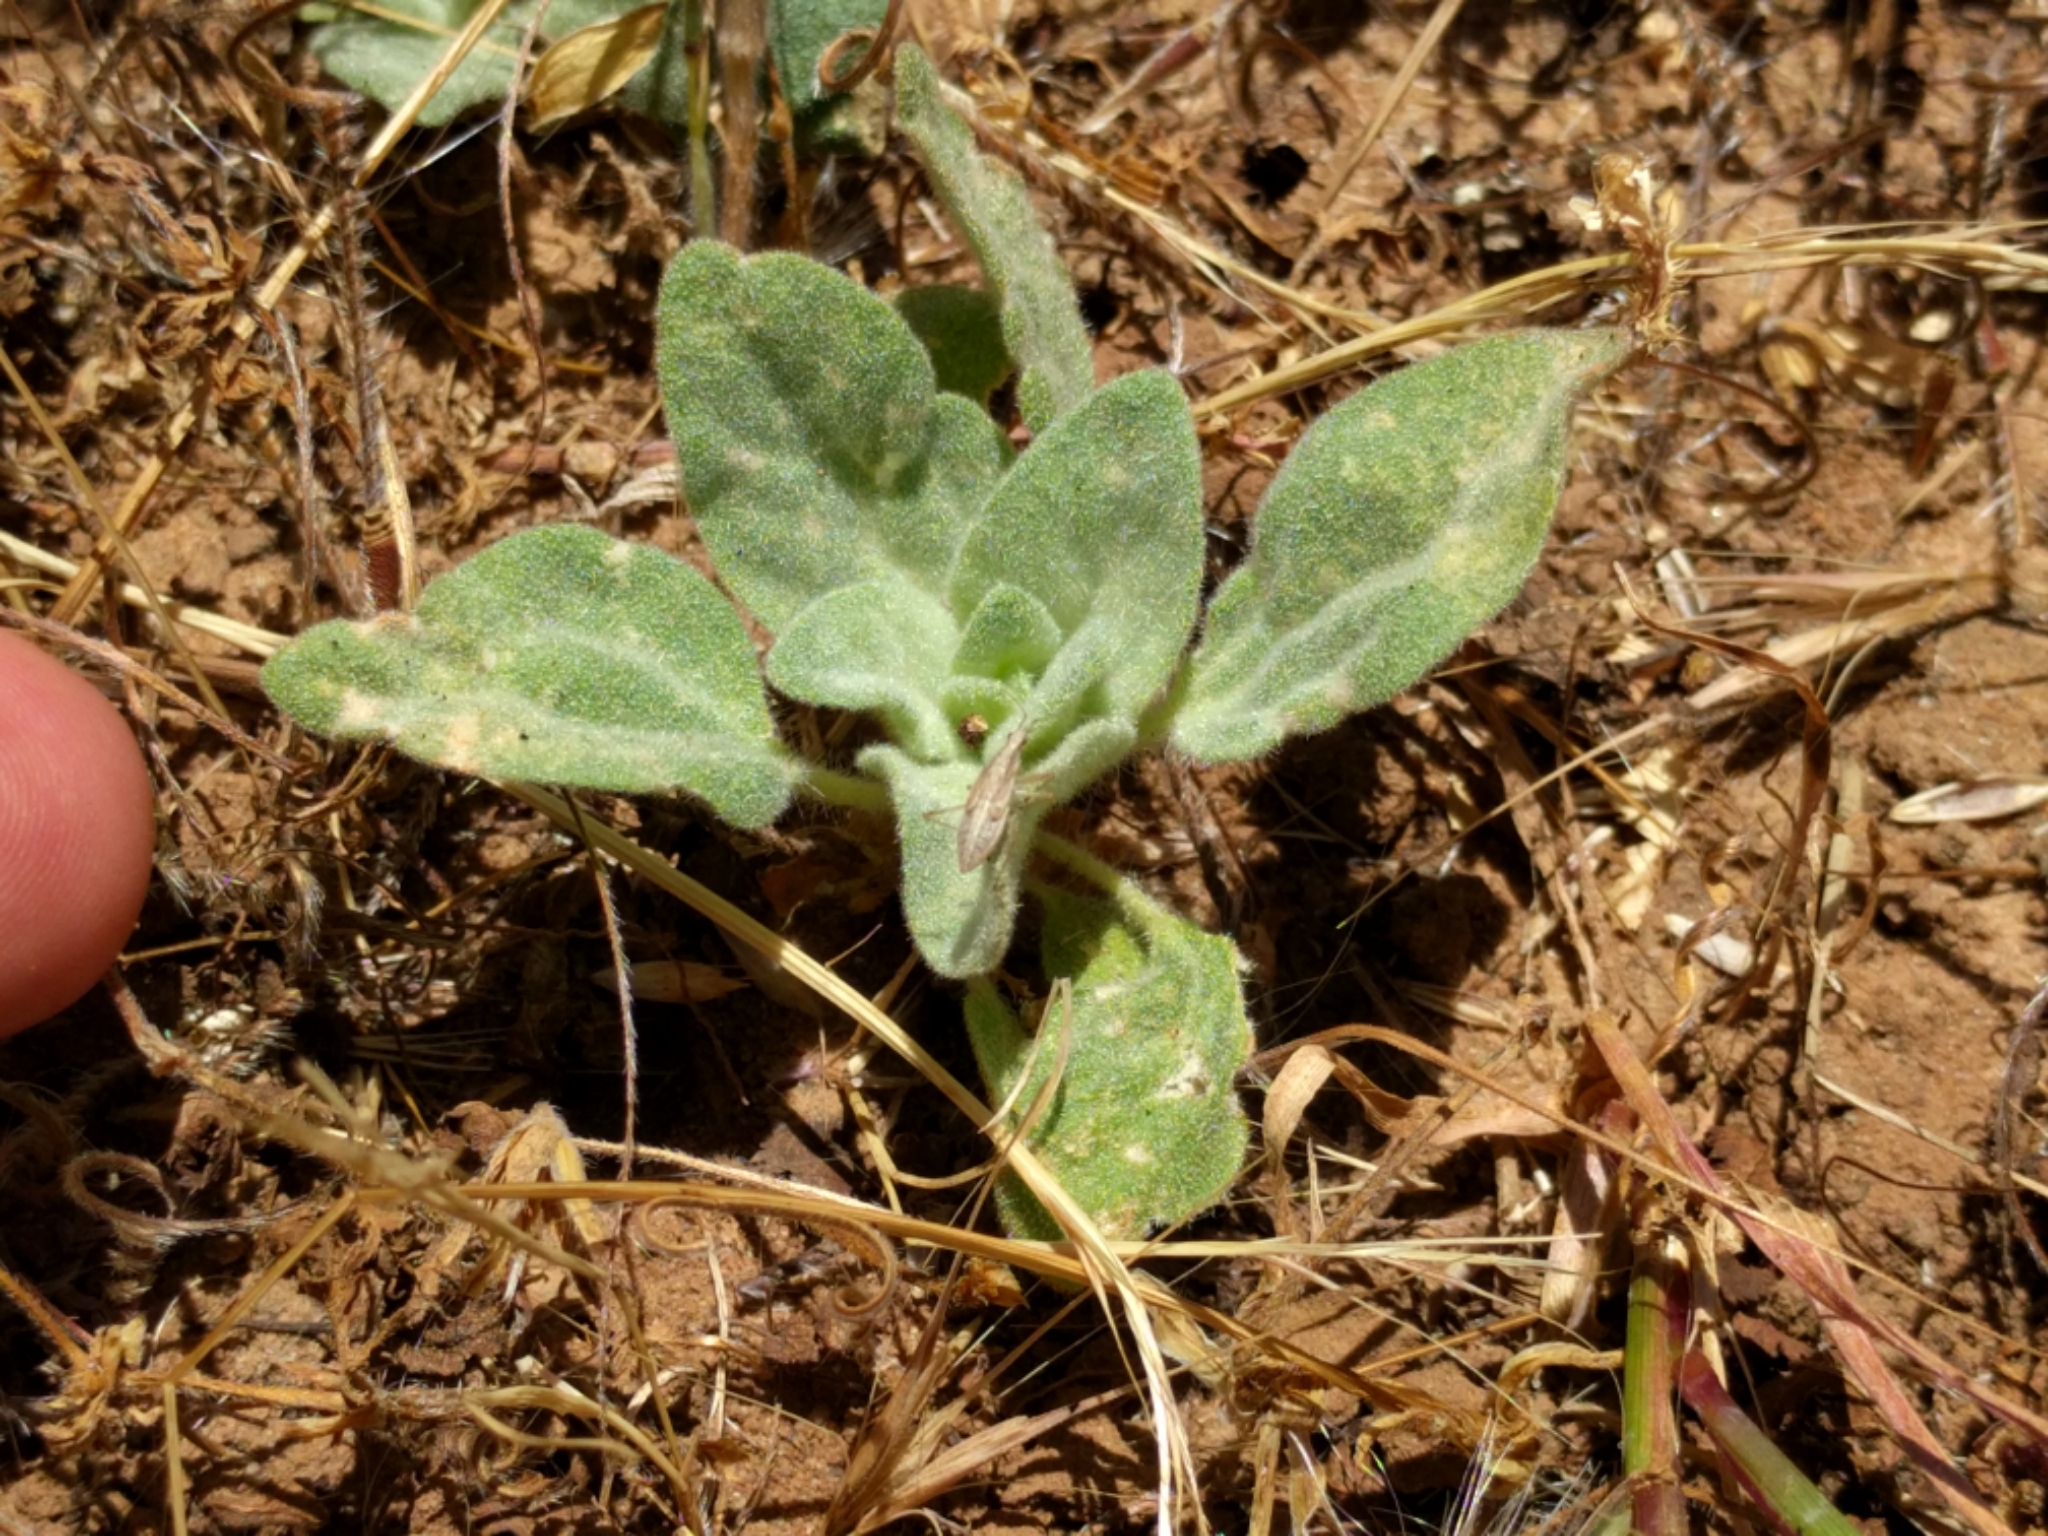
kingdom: Plantae
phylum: Tracheophyta
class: Magnoliopsida
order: Malpighiales
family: Euphorbiaceae
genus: Croton
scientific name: Croton setiger
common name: Dove weed
